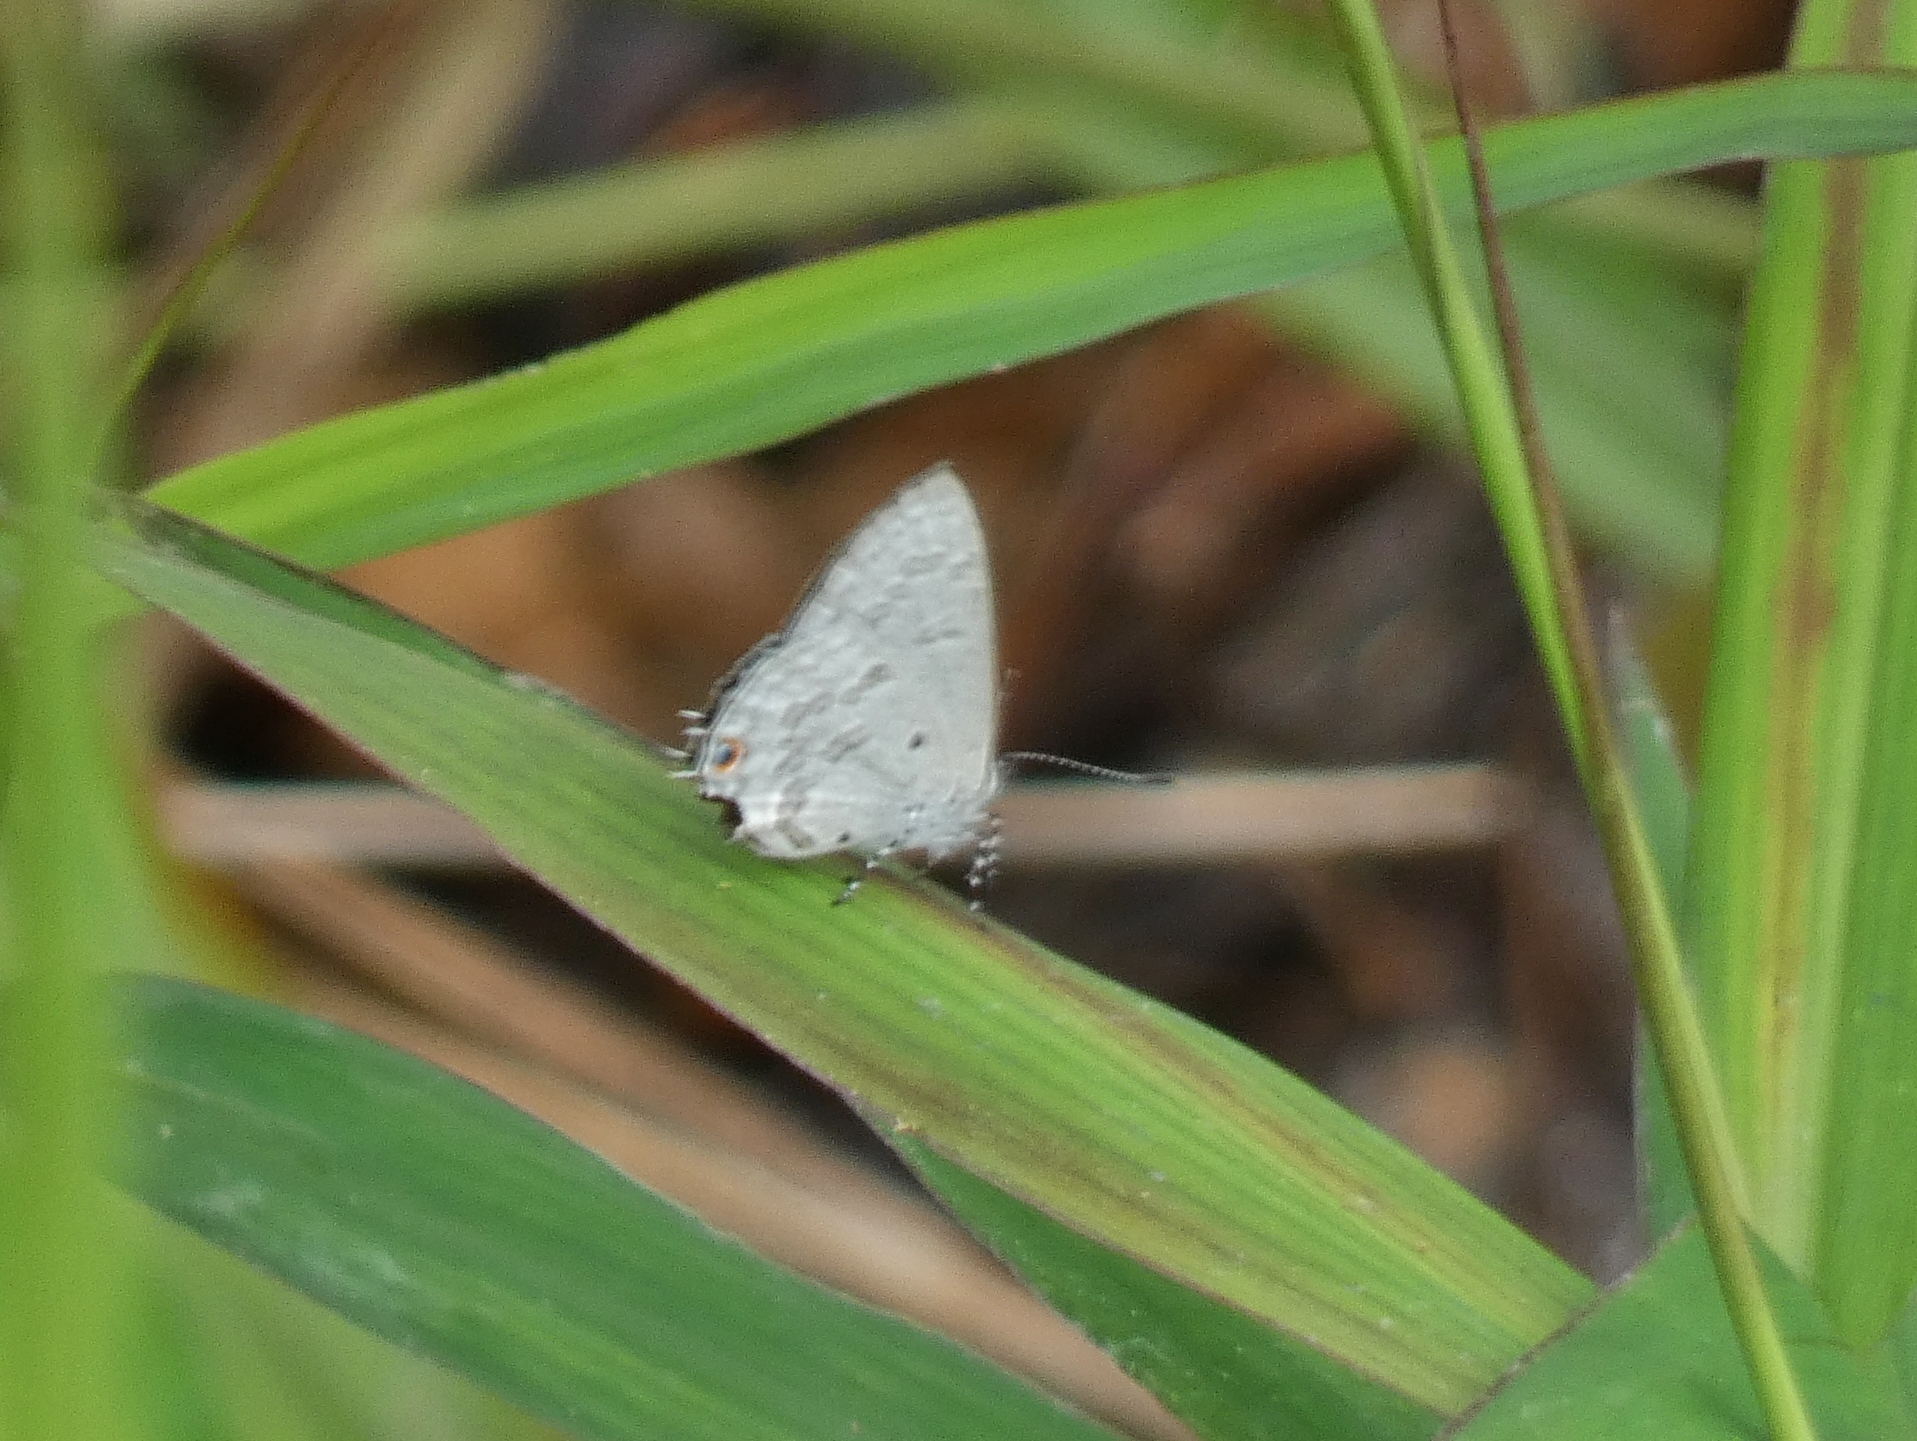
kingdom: Animalia
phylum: Arthropoda
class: Insecta
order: Lepidoptera
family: Lycaenidae
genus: Anthene
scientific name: Anthene liodes
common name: Liodes hairtail
